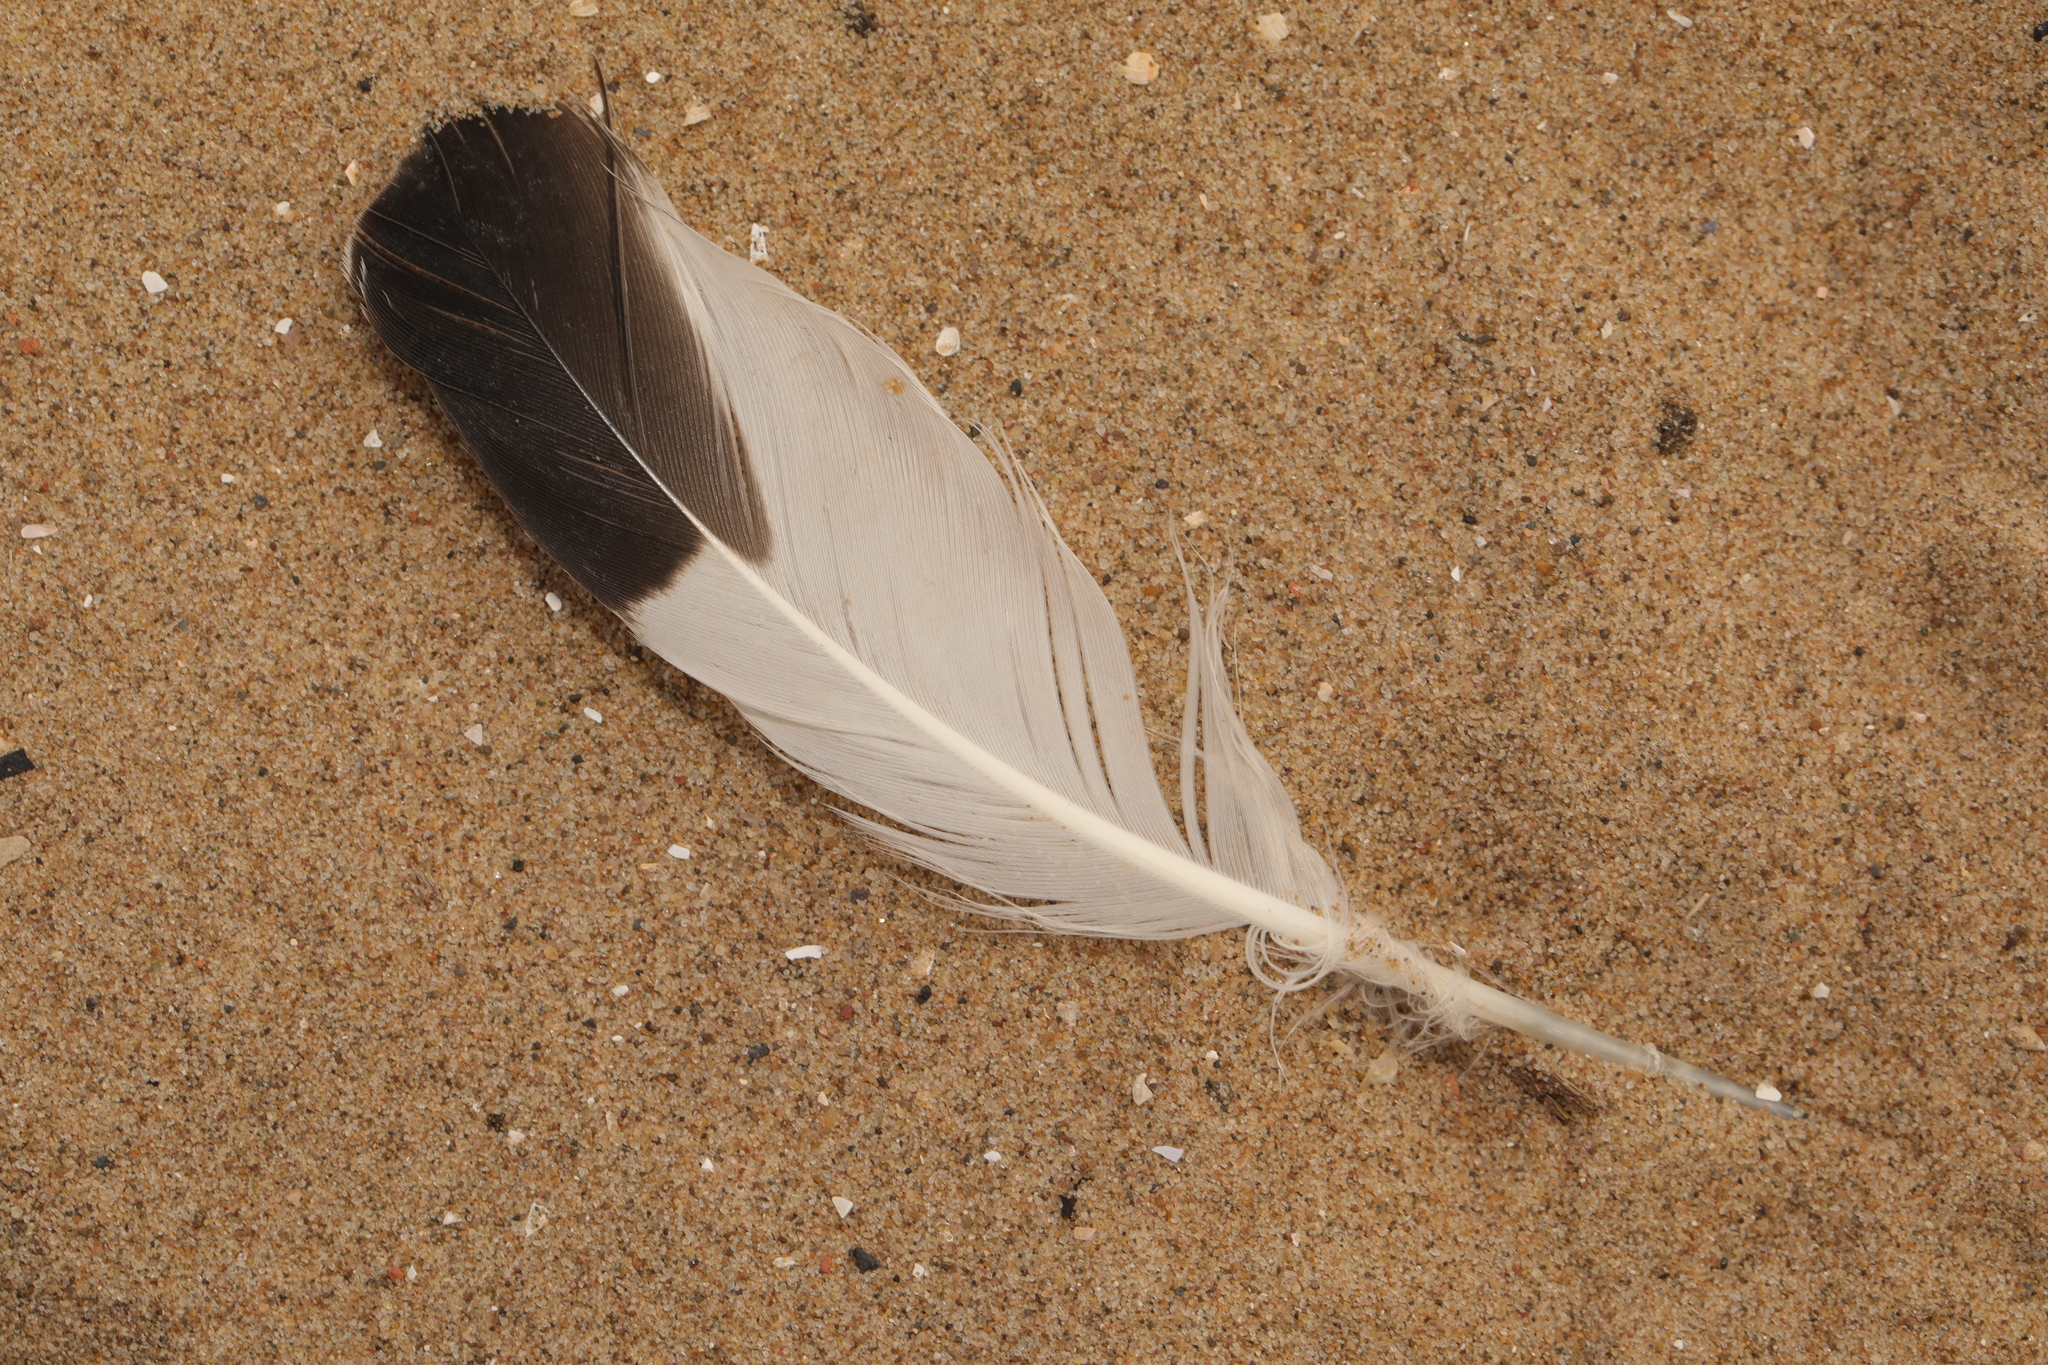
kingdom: Animalia
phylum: Chordata
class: Aves
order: Charadriiformes
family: Haematopodidae
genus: Haematopus
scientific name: Haematopus ostralegus
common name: Eurasian oystercatcher
